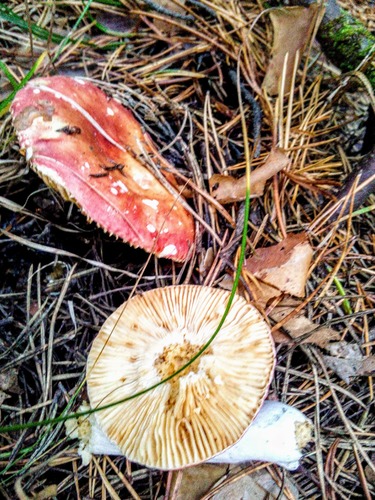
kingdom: Fungi
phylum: Basidiomycota
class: Agaricomycetes
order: Russulales
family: Russulaceae
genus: Russula
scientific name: Russula rhodocephala
